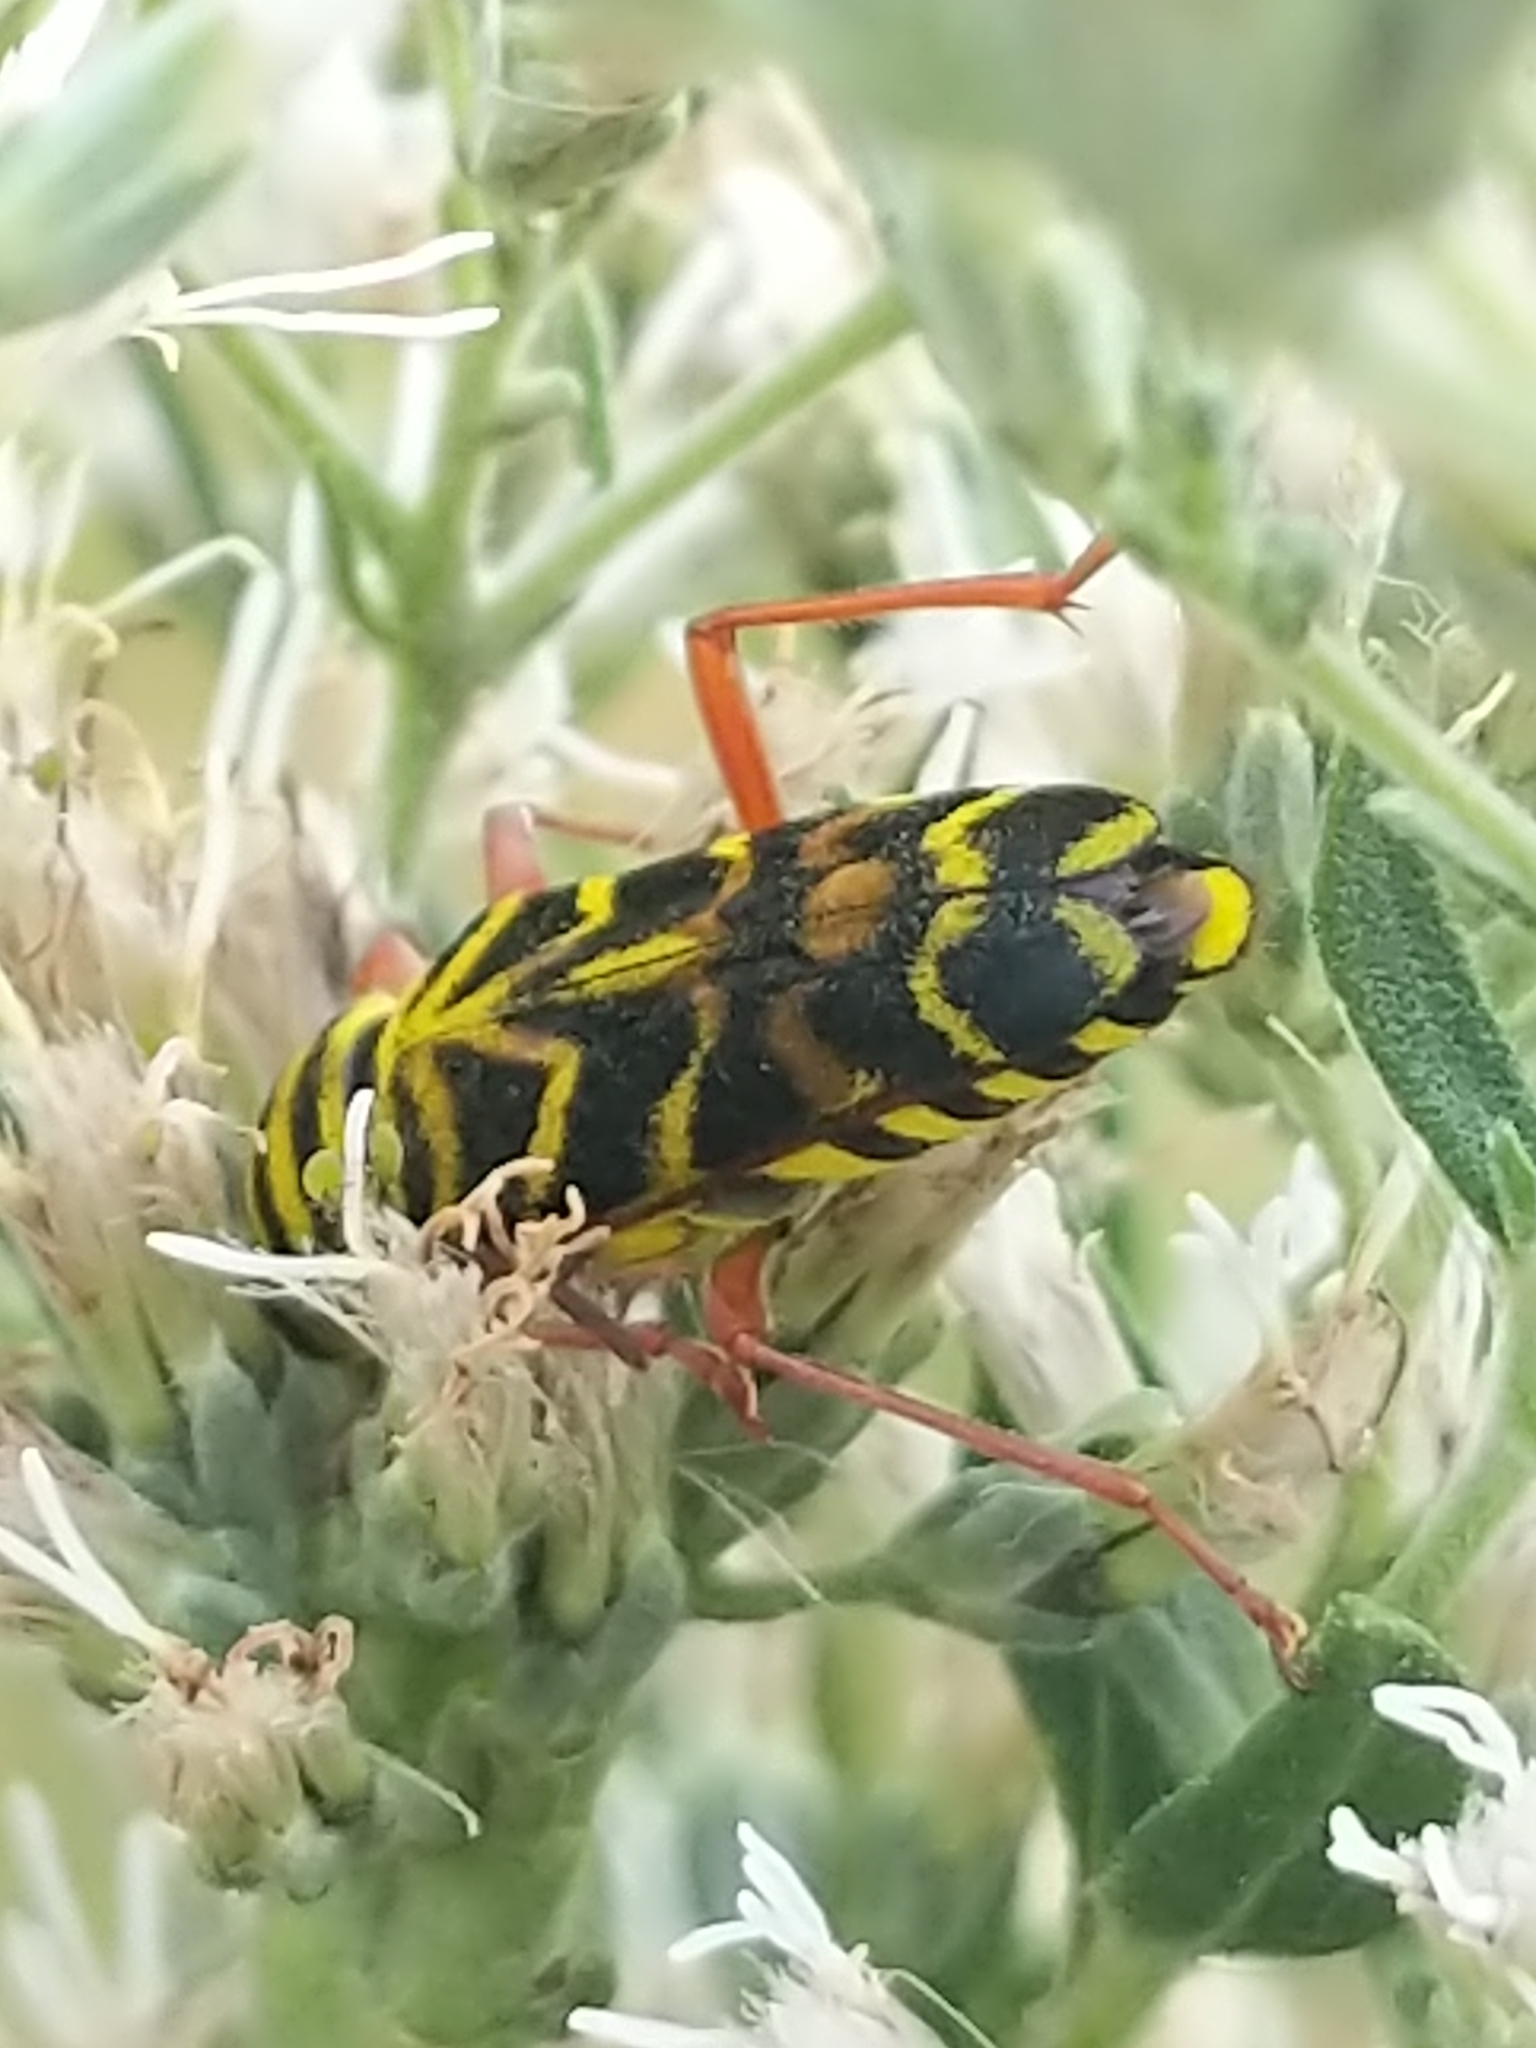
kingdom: Animalia
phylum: Arthropoda
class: Insecta
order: Coleoptera
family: Cerambycidae
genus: Megacyllene
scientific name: Megacyllene robiniae
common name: Locust borer
